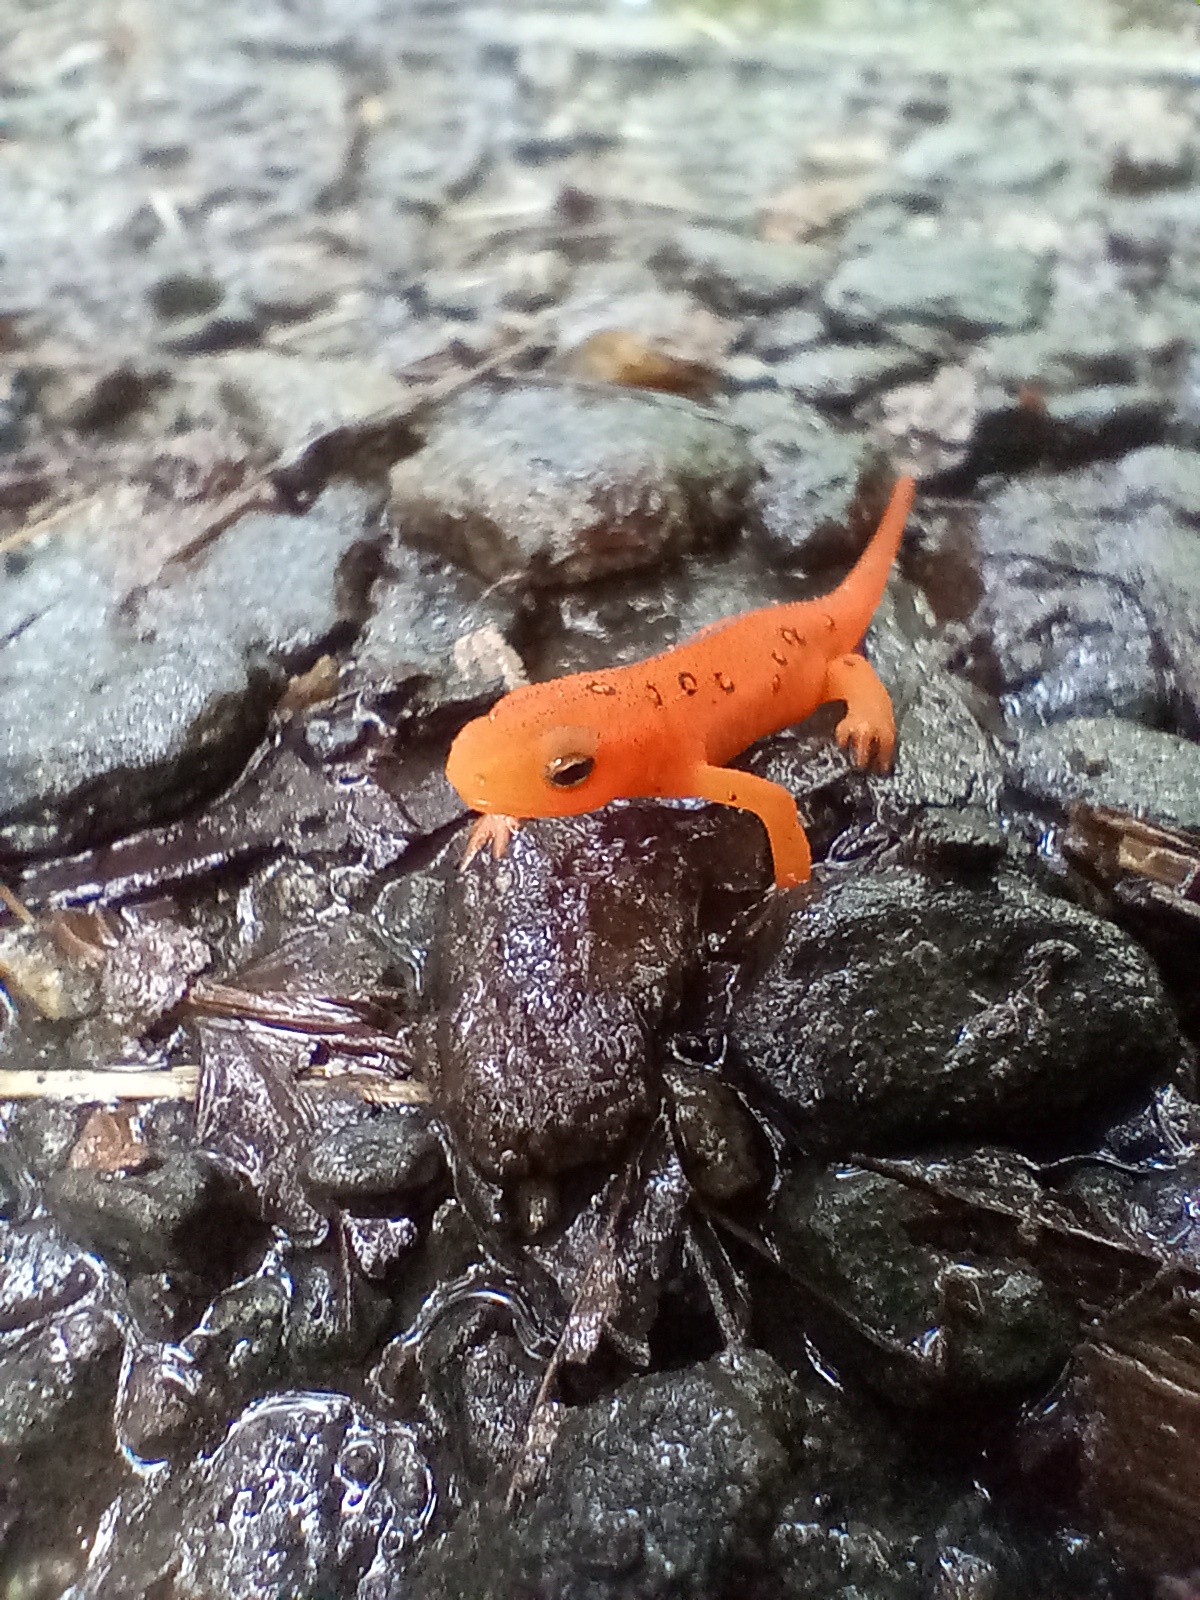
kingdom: Animalia
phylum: Chordata
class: Amphibia
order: Caudata
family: Salamandridae
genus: Notophthalmus
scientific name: Notophthalmus viridescens
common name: Eastern newt
